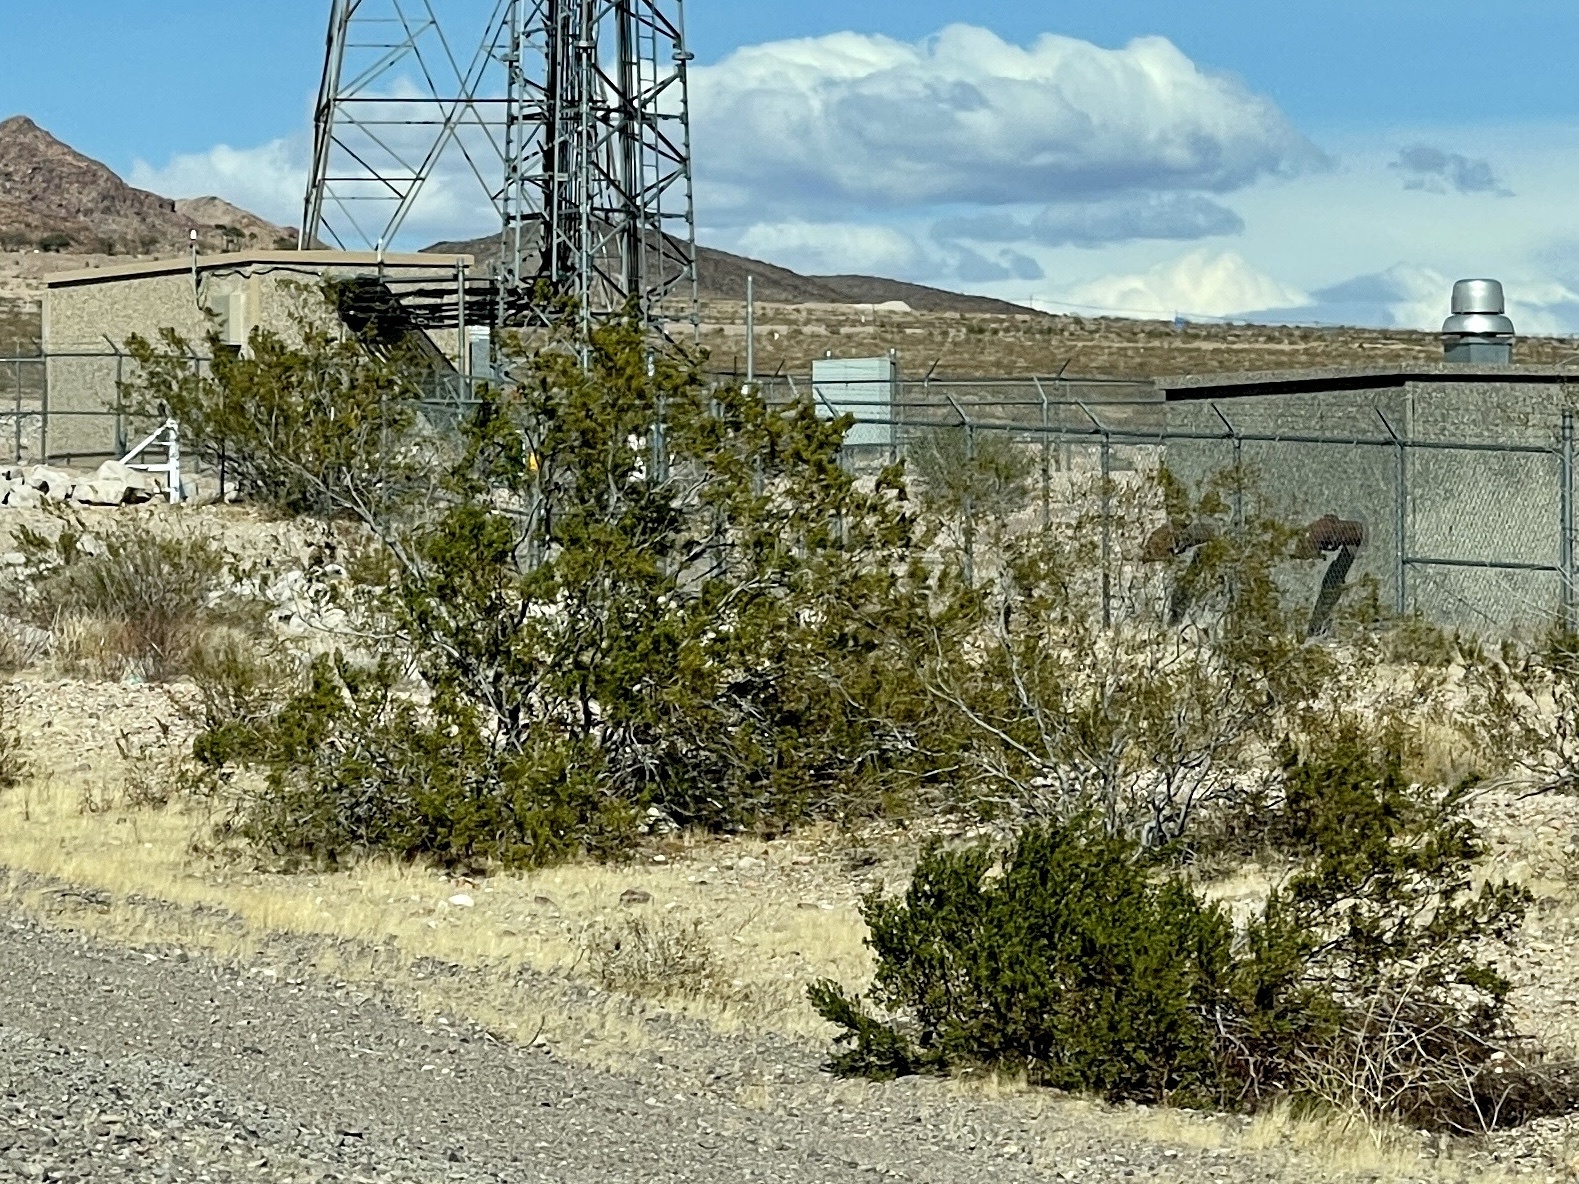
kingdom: Plantae
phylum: Tracheophyta
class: Magnoliopsida
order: Zygophyllales
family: Zygophyllaceae
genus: Larrea
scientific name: Larrea tridentata
